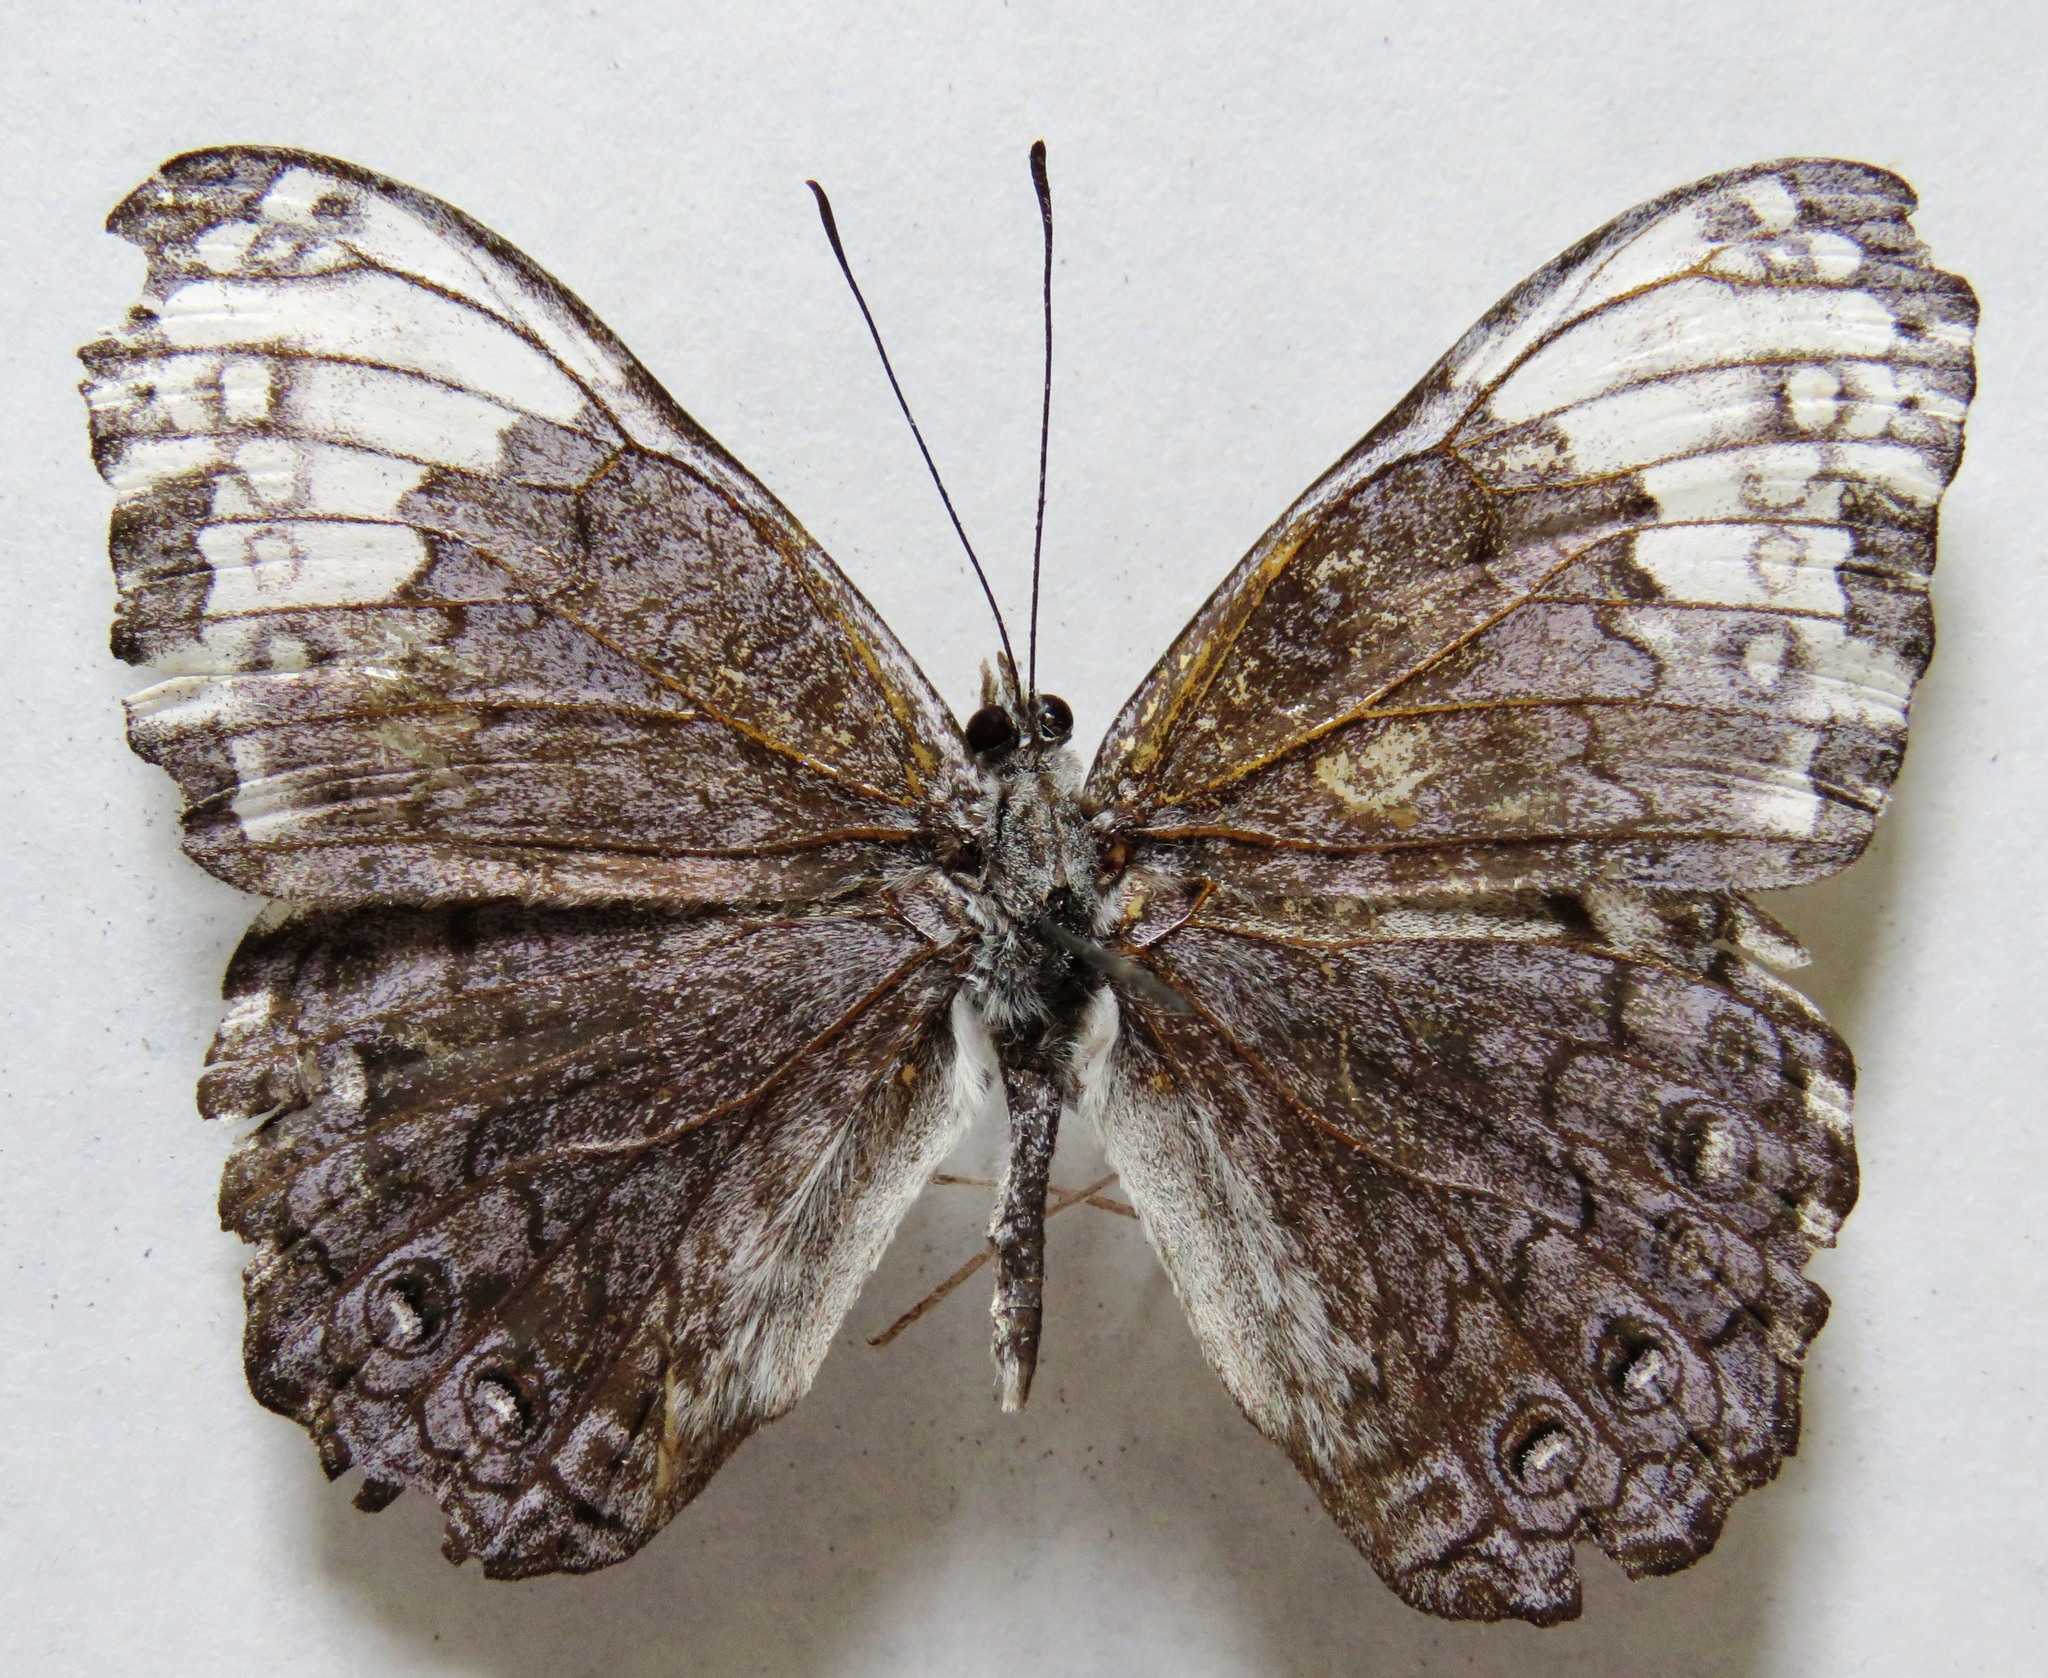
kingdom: Animalia
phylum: Arthropoda
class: Insecta
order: Lepidoptera
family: Nymphalidae
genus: Hamadryas
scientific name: Hamadryas glauconome
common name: Glaucous cracker
